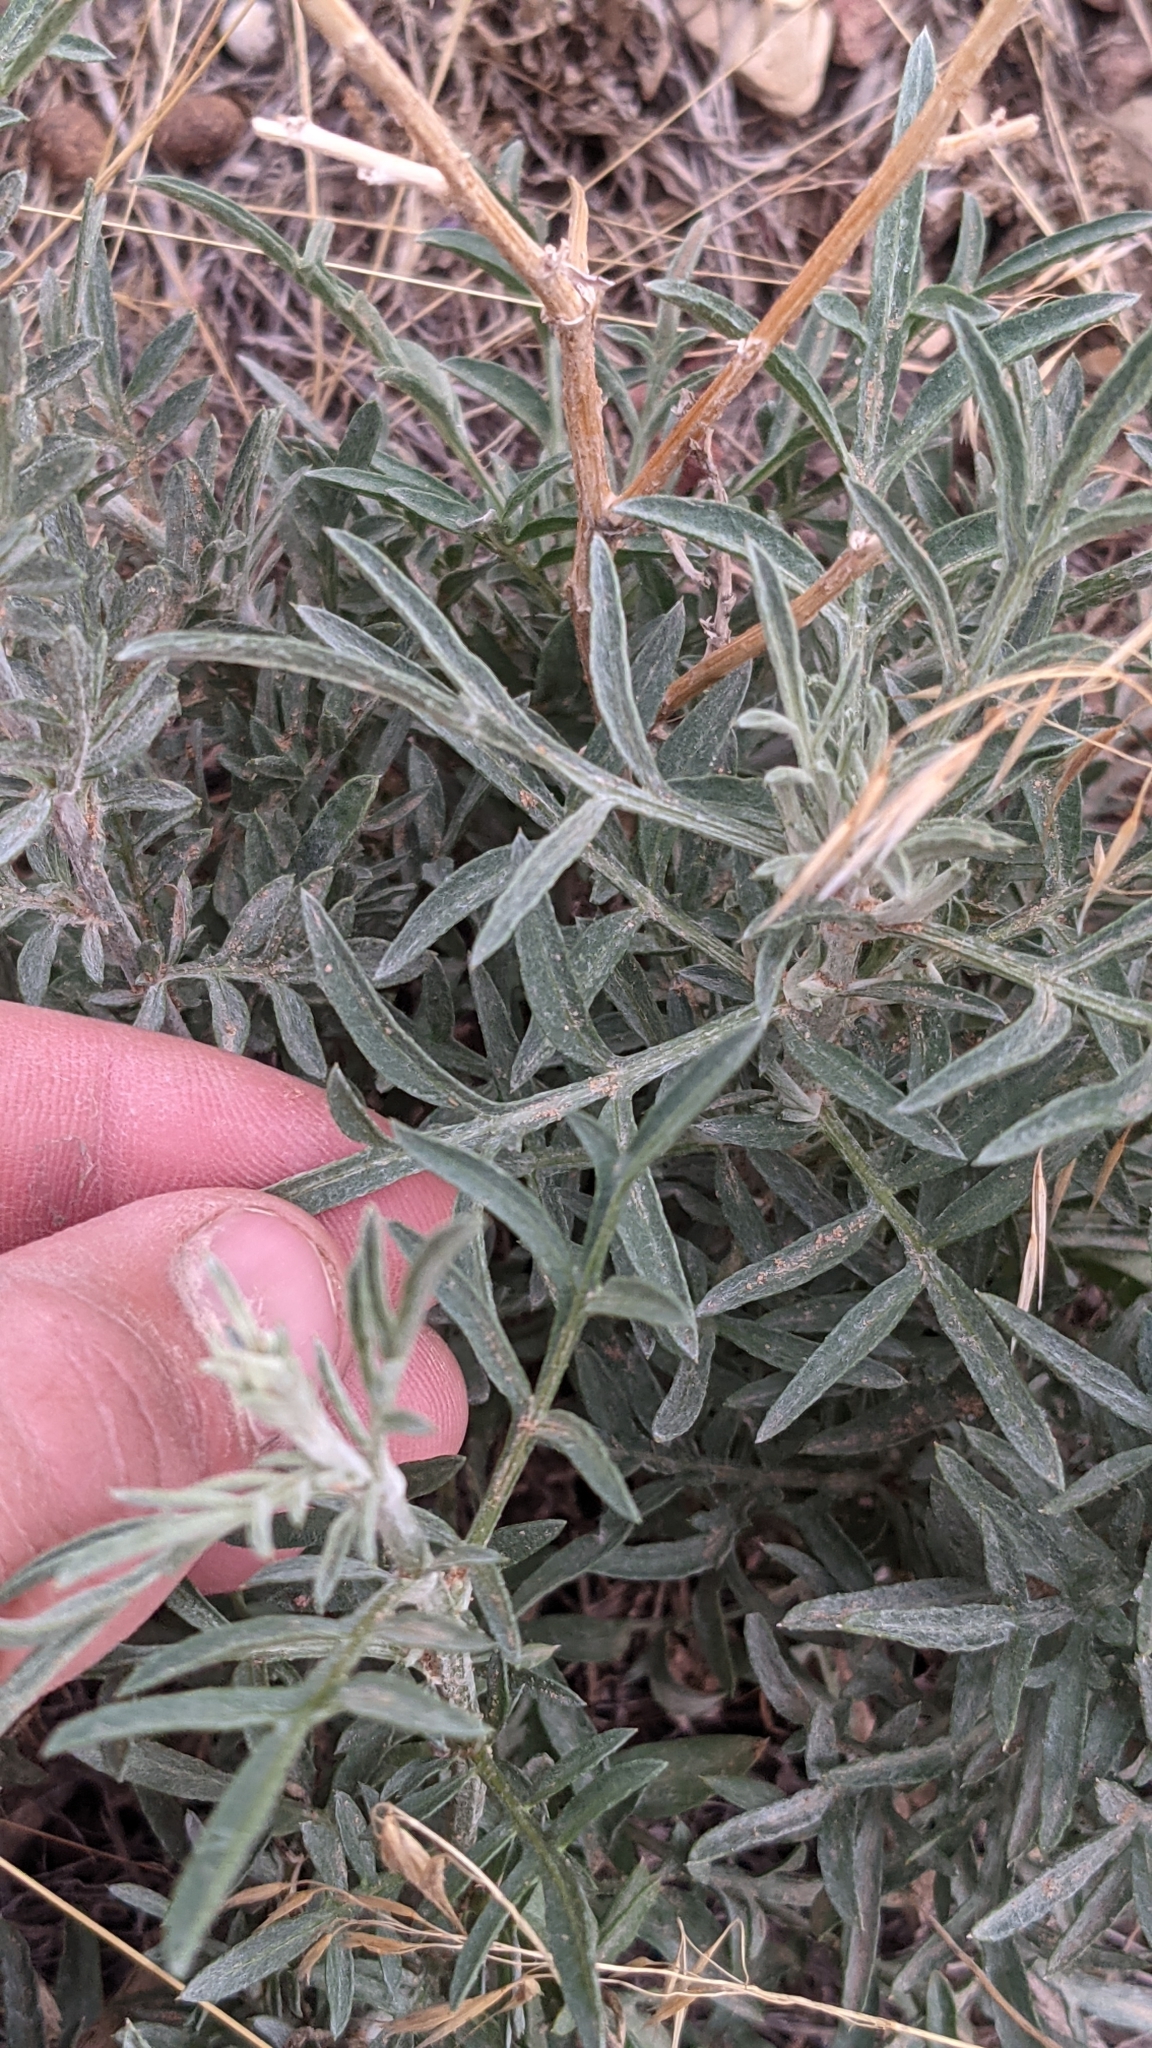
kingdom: Plantae
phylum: Tracheophyta
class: Magnoliopsida
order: Asterales
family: Asteraceae
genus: Centaurea
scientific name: Centaurea stoebe
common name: Spotted knapweed
